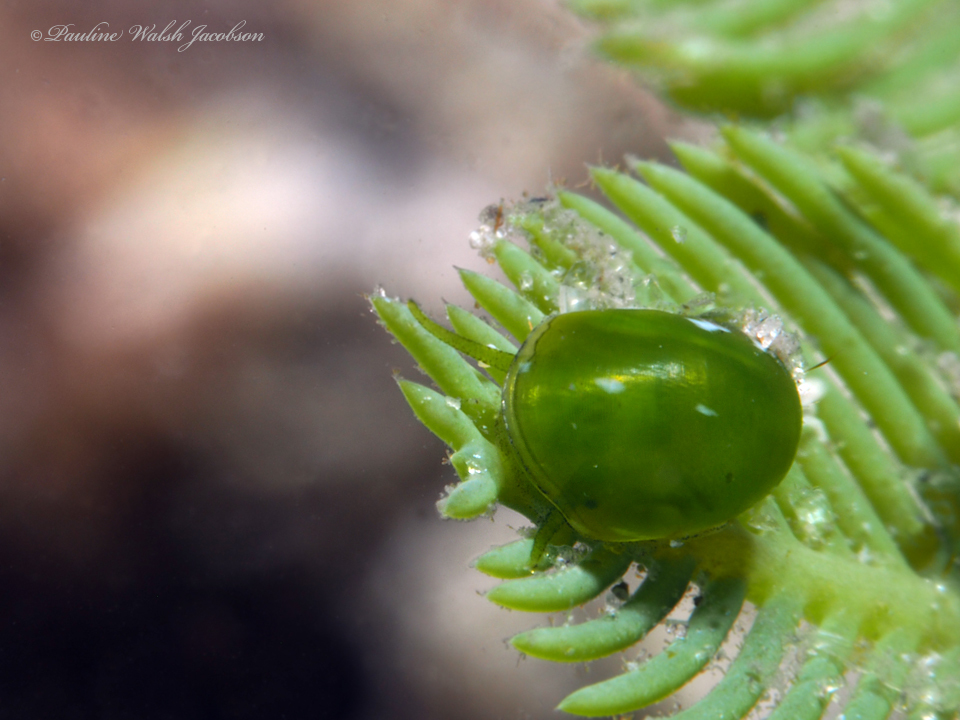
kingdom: Animalia
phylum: Mollusca
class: Gastropoda
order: Cycloneritida
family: Neritidae
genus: Smaragdia
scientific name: Smaragdia viridis
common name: Emerald nerite
